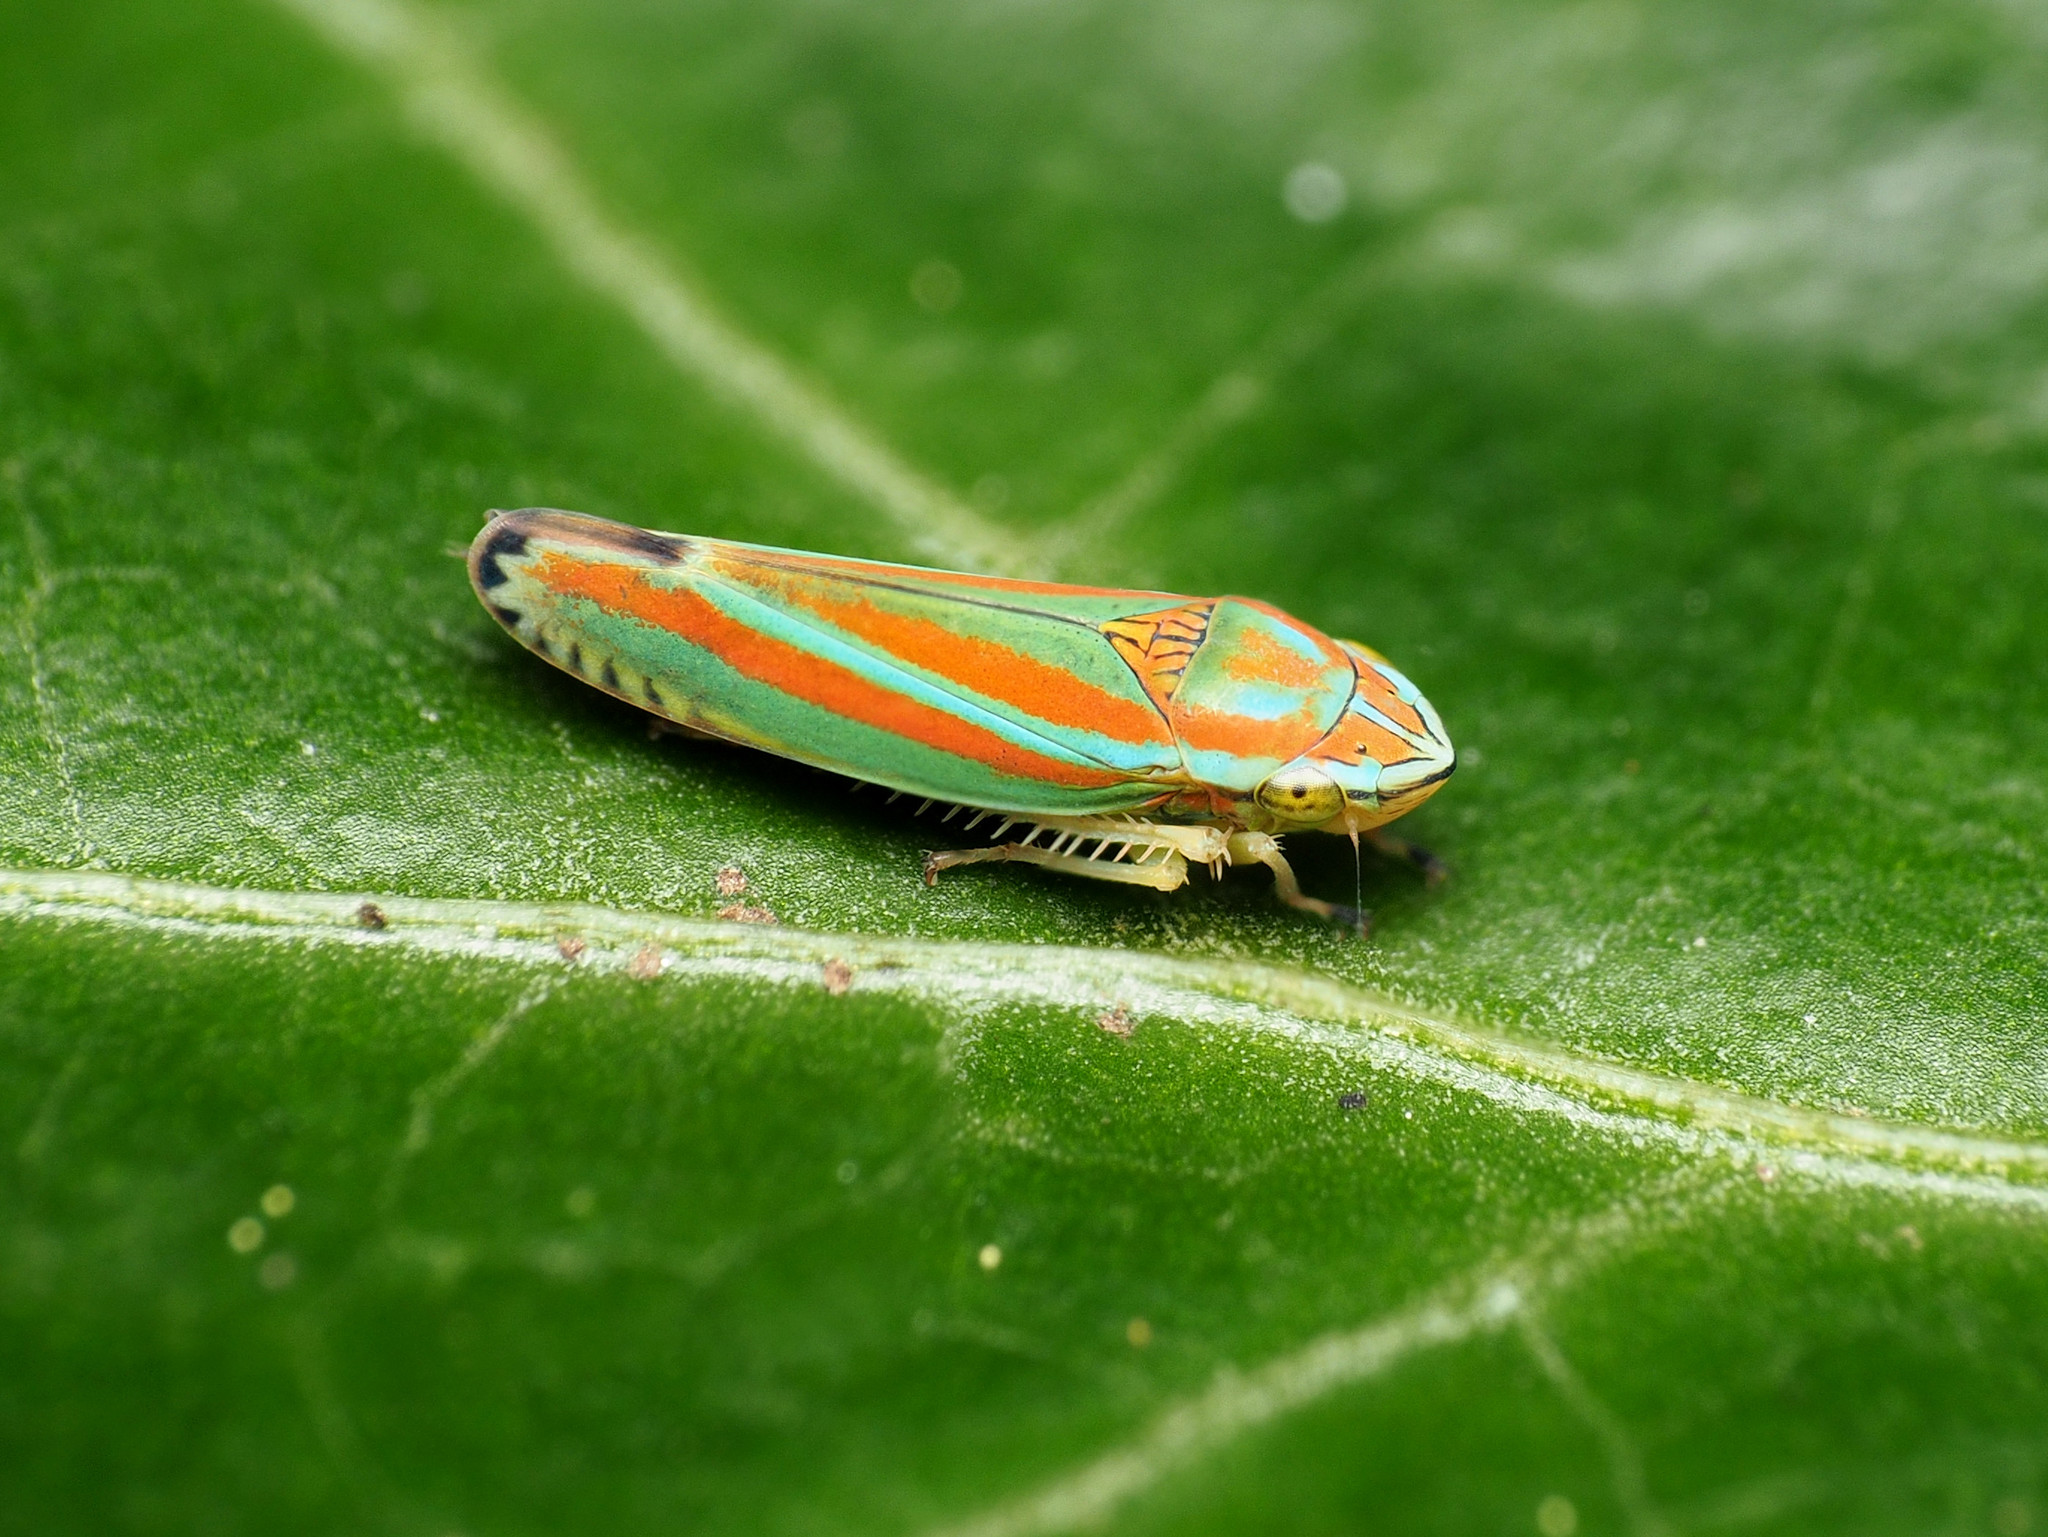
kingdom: Animalia
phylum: Arthropoda
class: Insecta
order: Hemiptera
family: Cicadellidae
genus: Graphocephala
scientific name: Graphocephala versuta
